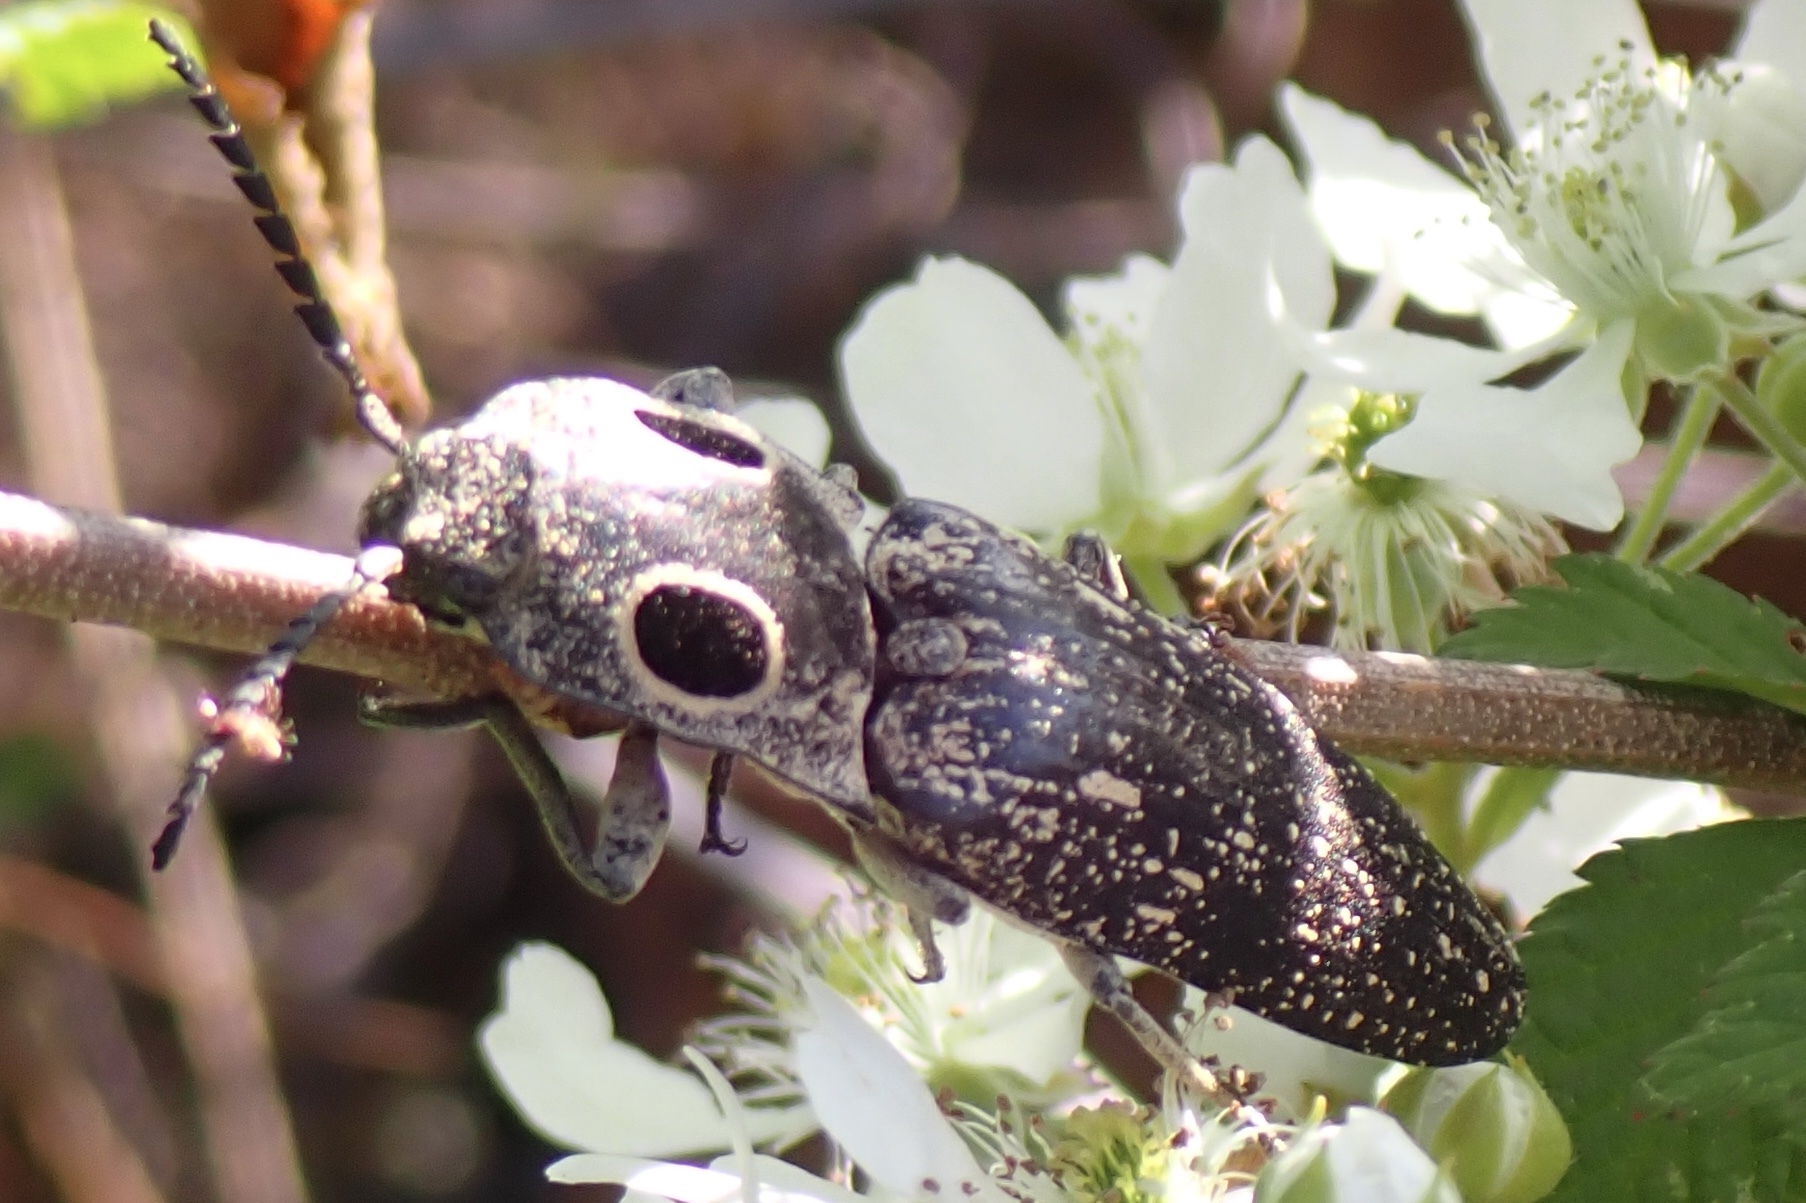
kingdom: Animalia
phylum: Arthropoda
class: Insecta
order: Coleoptera
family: Elateridae
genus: Alaus
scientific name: Alaus oculatus
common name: Eastern eyed click beetle
